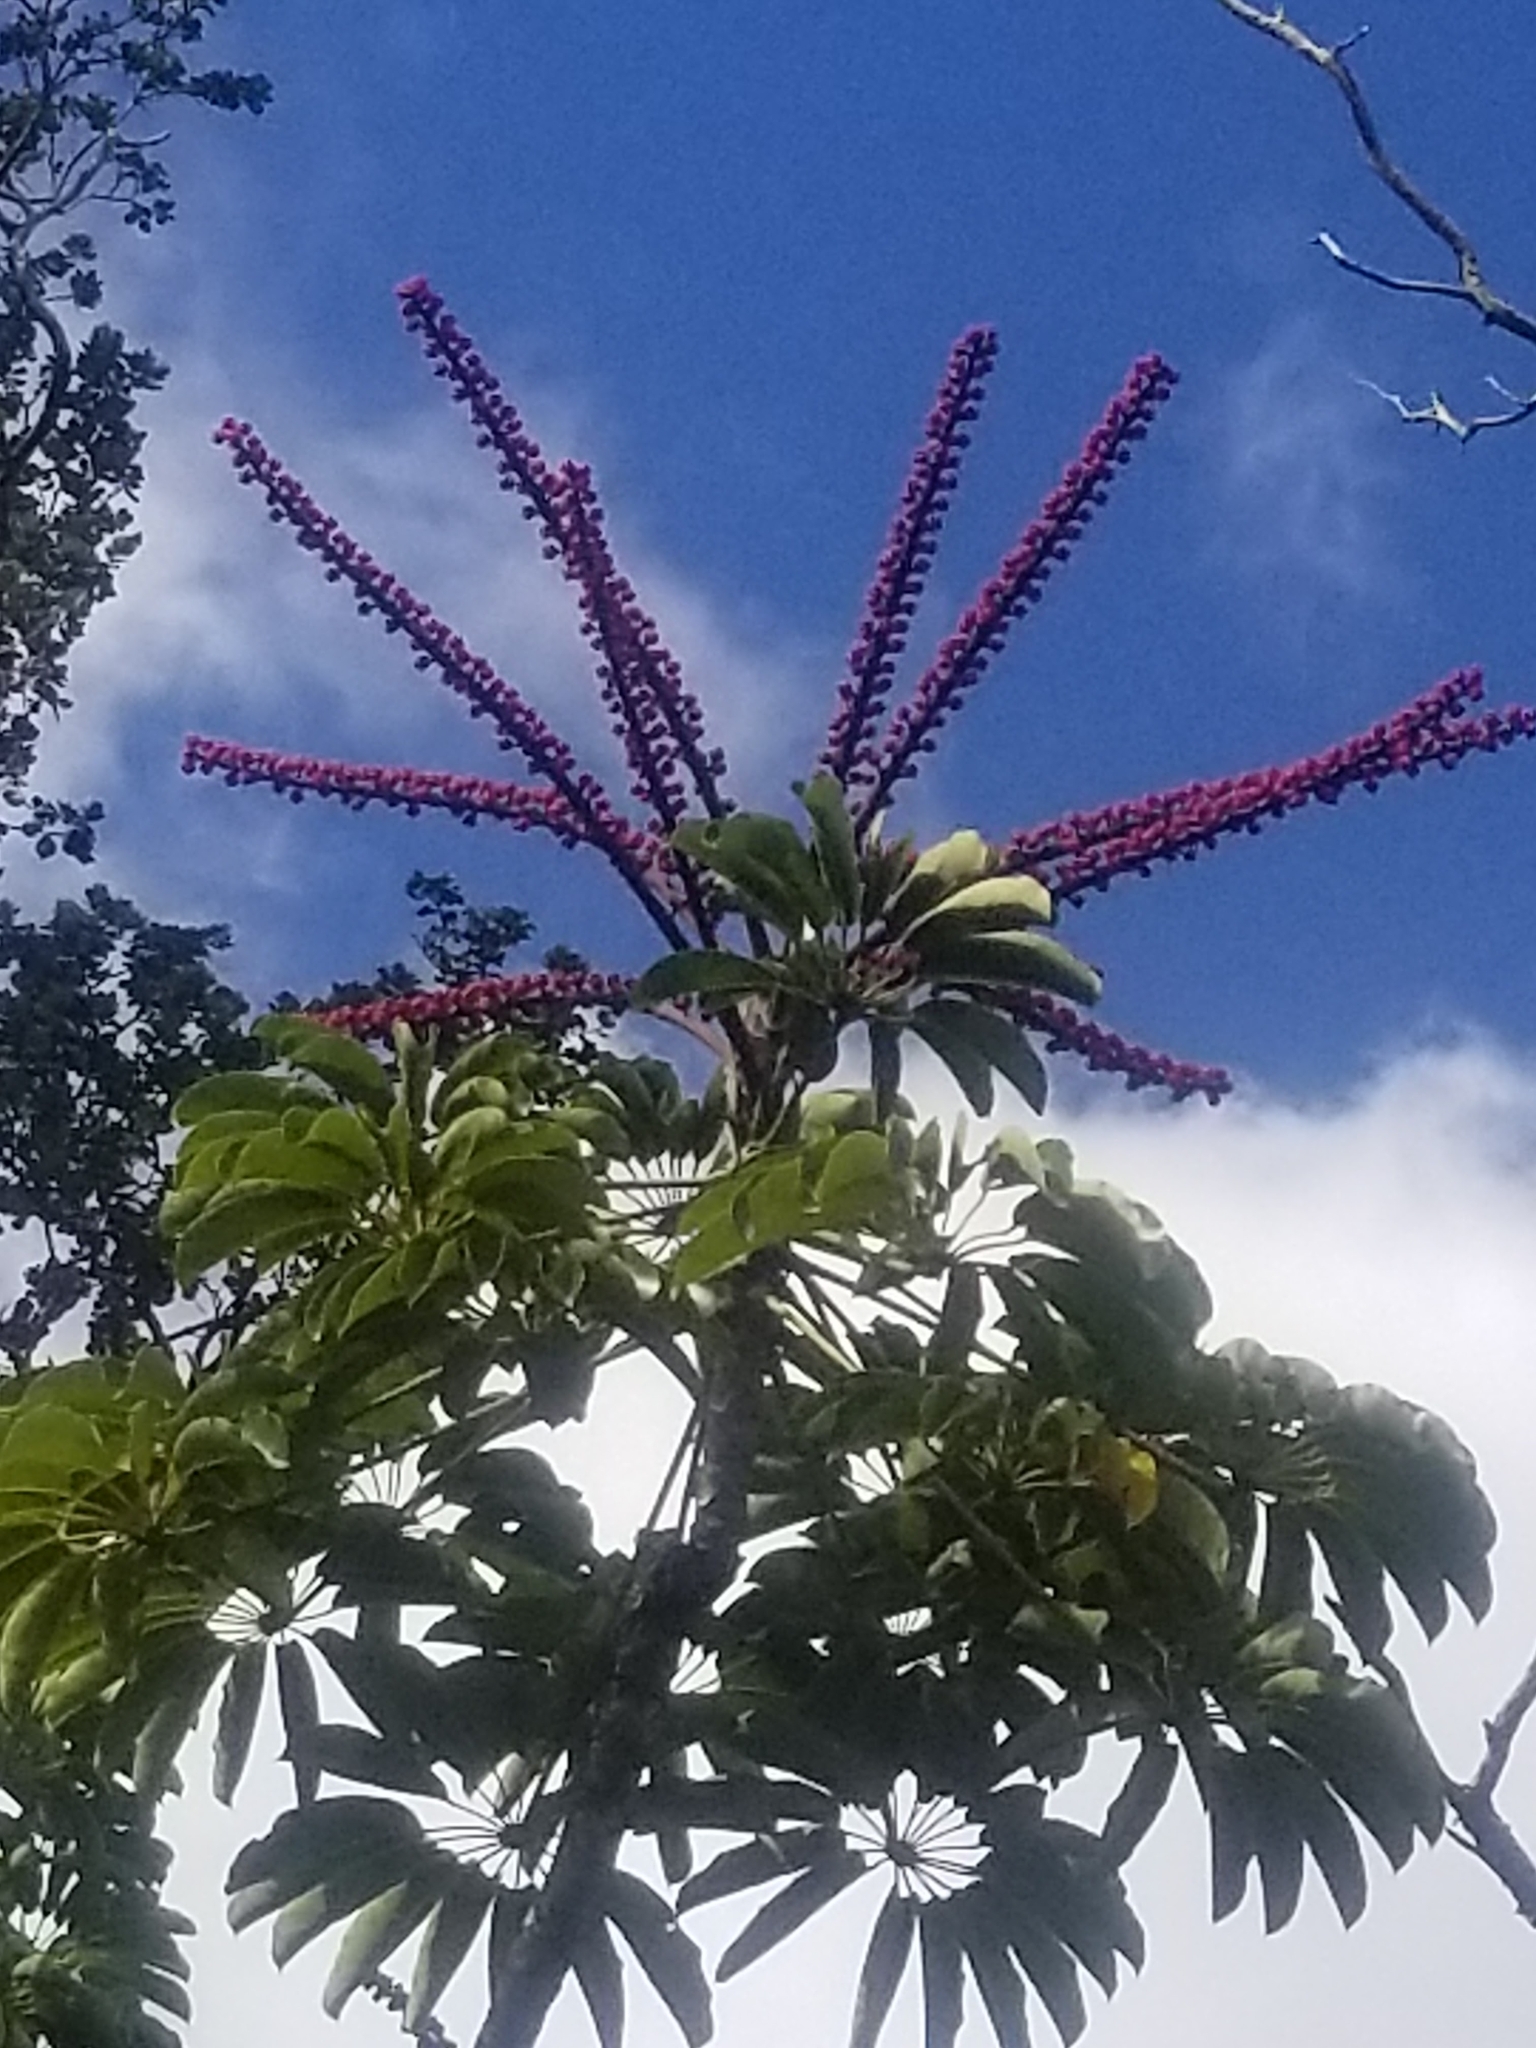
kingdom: Plantae
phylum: Tracheophyta
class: Magnoliopsida
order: Apiales
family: Araliaceae
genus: Heptapleurum
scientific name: Heptapleurum actinophyllum
